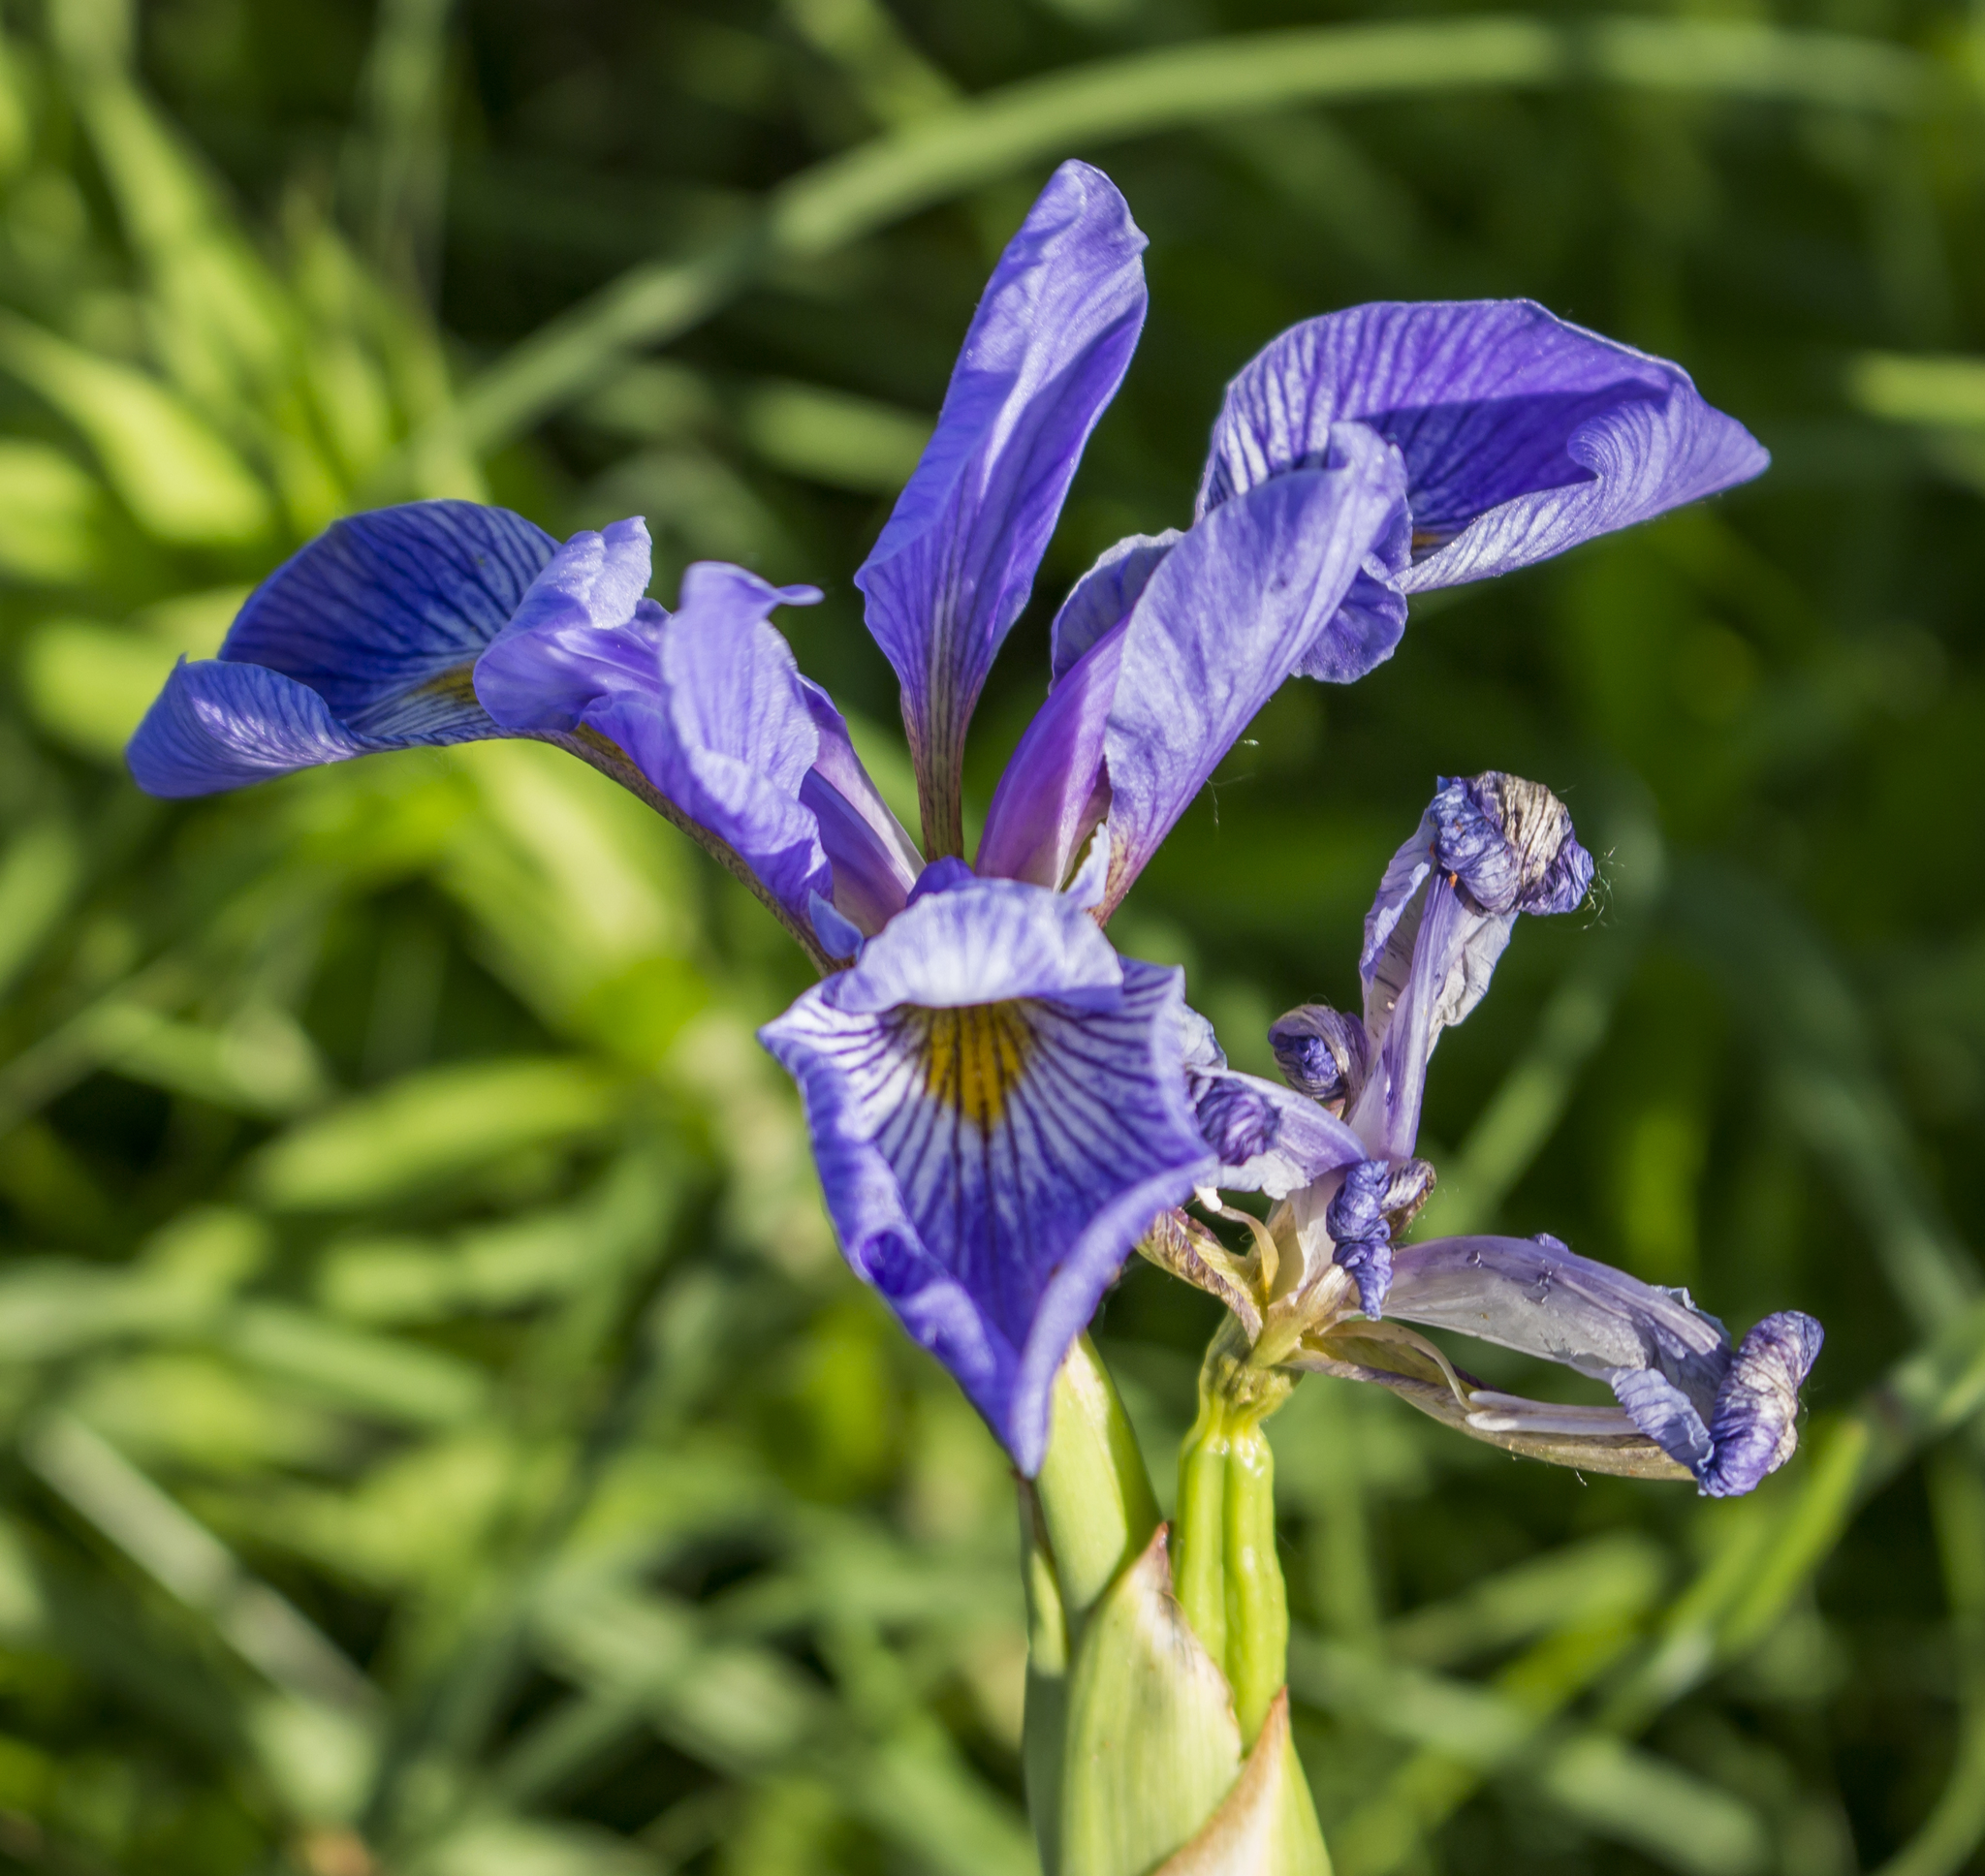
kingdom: Plantae
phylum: Tracheophyta
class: Liliopsida
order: Asparagales
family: Iridaceae
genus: Iris
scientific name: Iris virginica
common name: Southern blue flag
